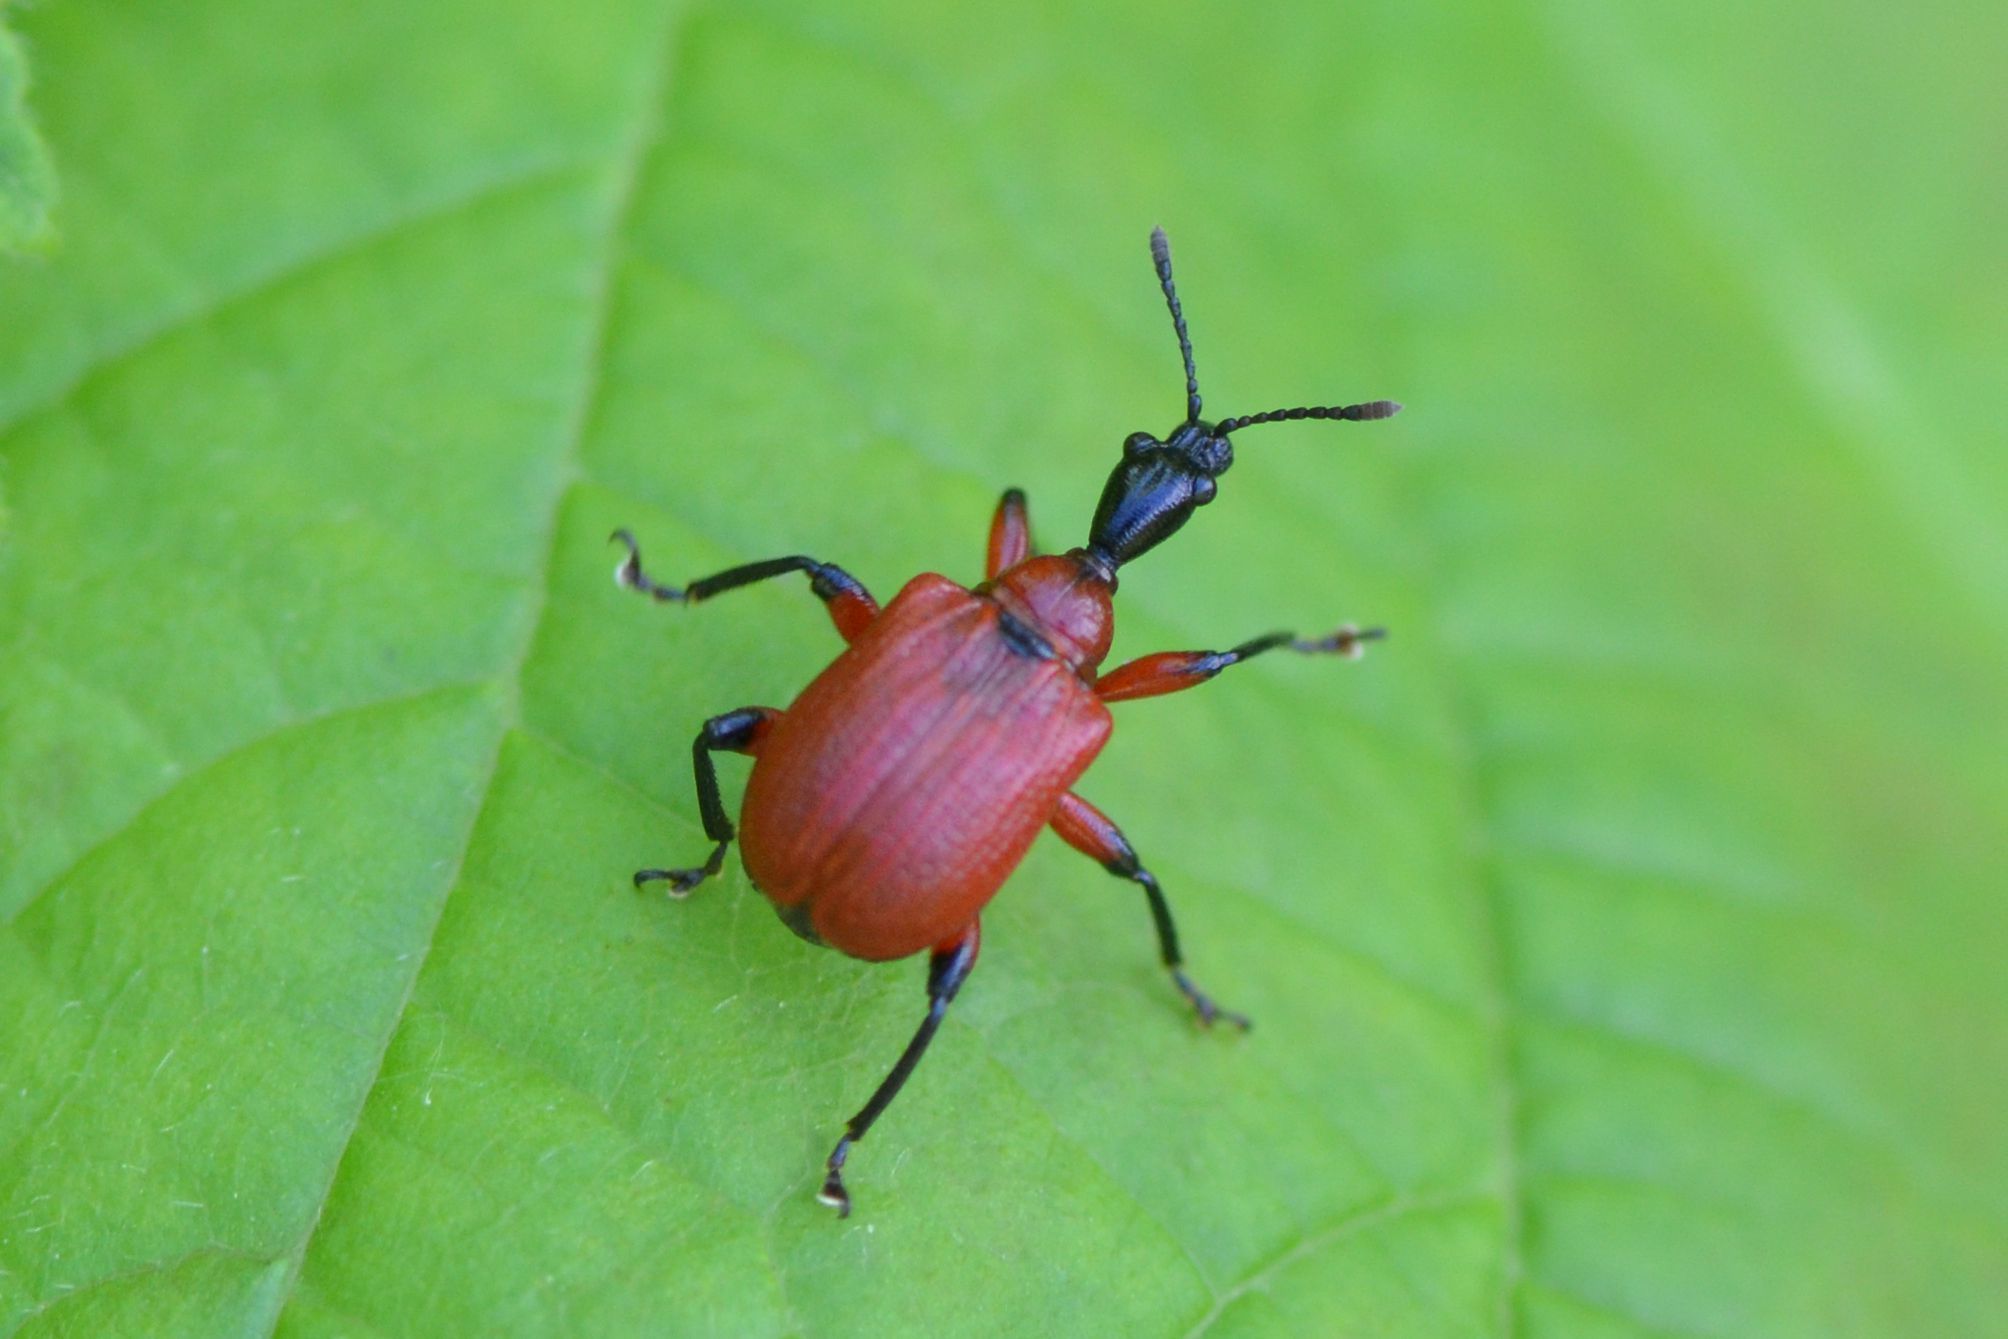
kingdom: Animalia
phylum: Arthropoda
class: Insecta
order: Coleoptera
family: Attelabidae
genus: Apoderus
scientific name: Apoderus coryli
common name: Hazel leaf roller
